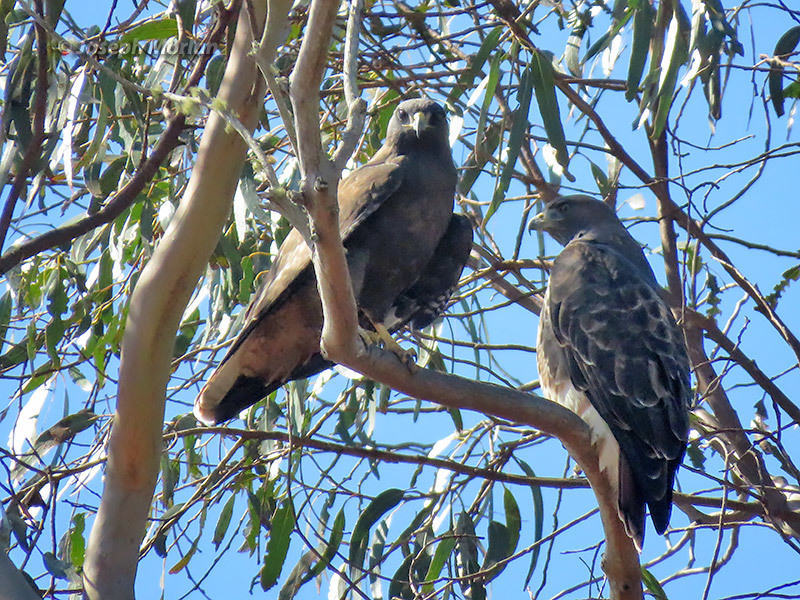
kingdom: Animalia
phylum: Chordata
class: Aves
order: Accipitriformes
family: Accipitridae
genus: Buteo
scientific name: Buteo jamaicensis
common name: Red-tailed hawk
